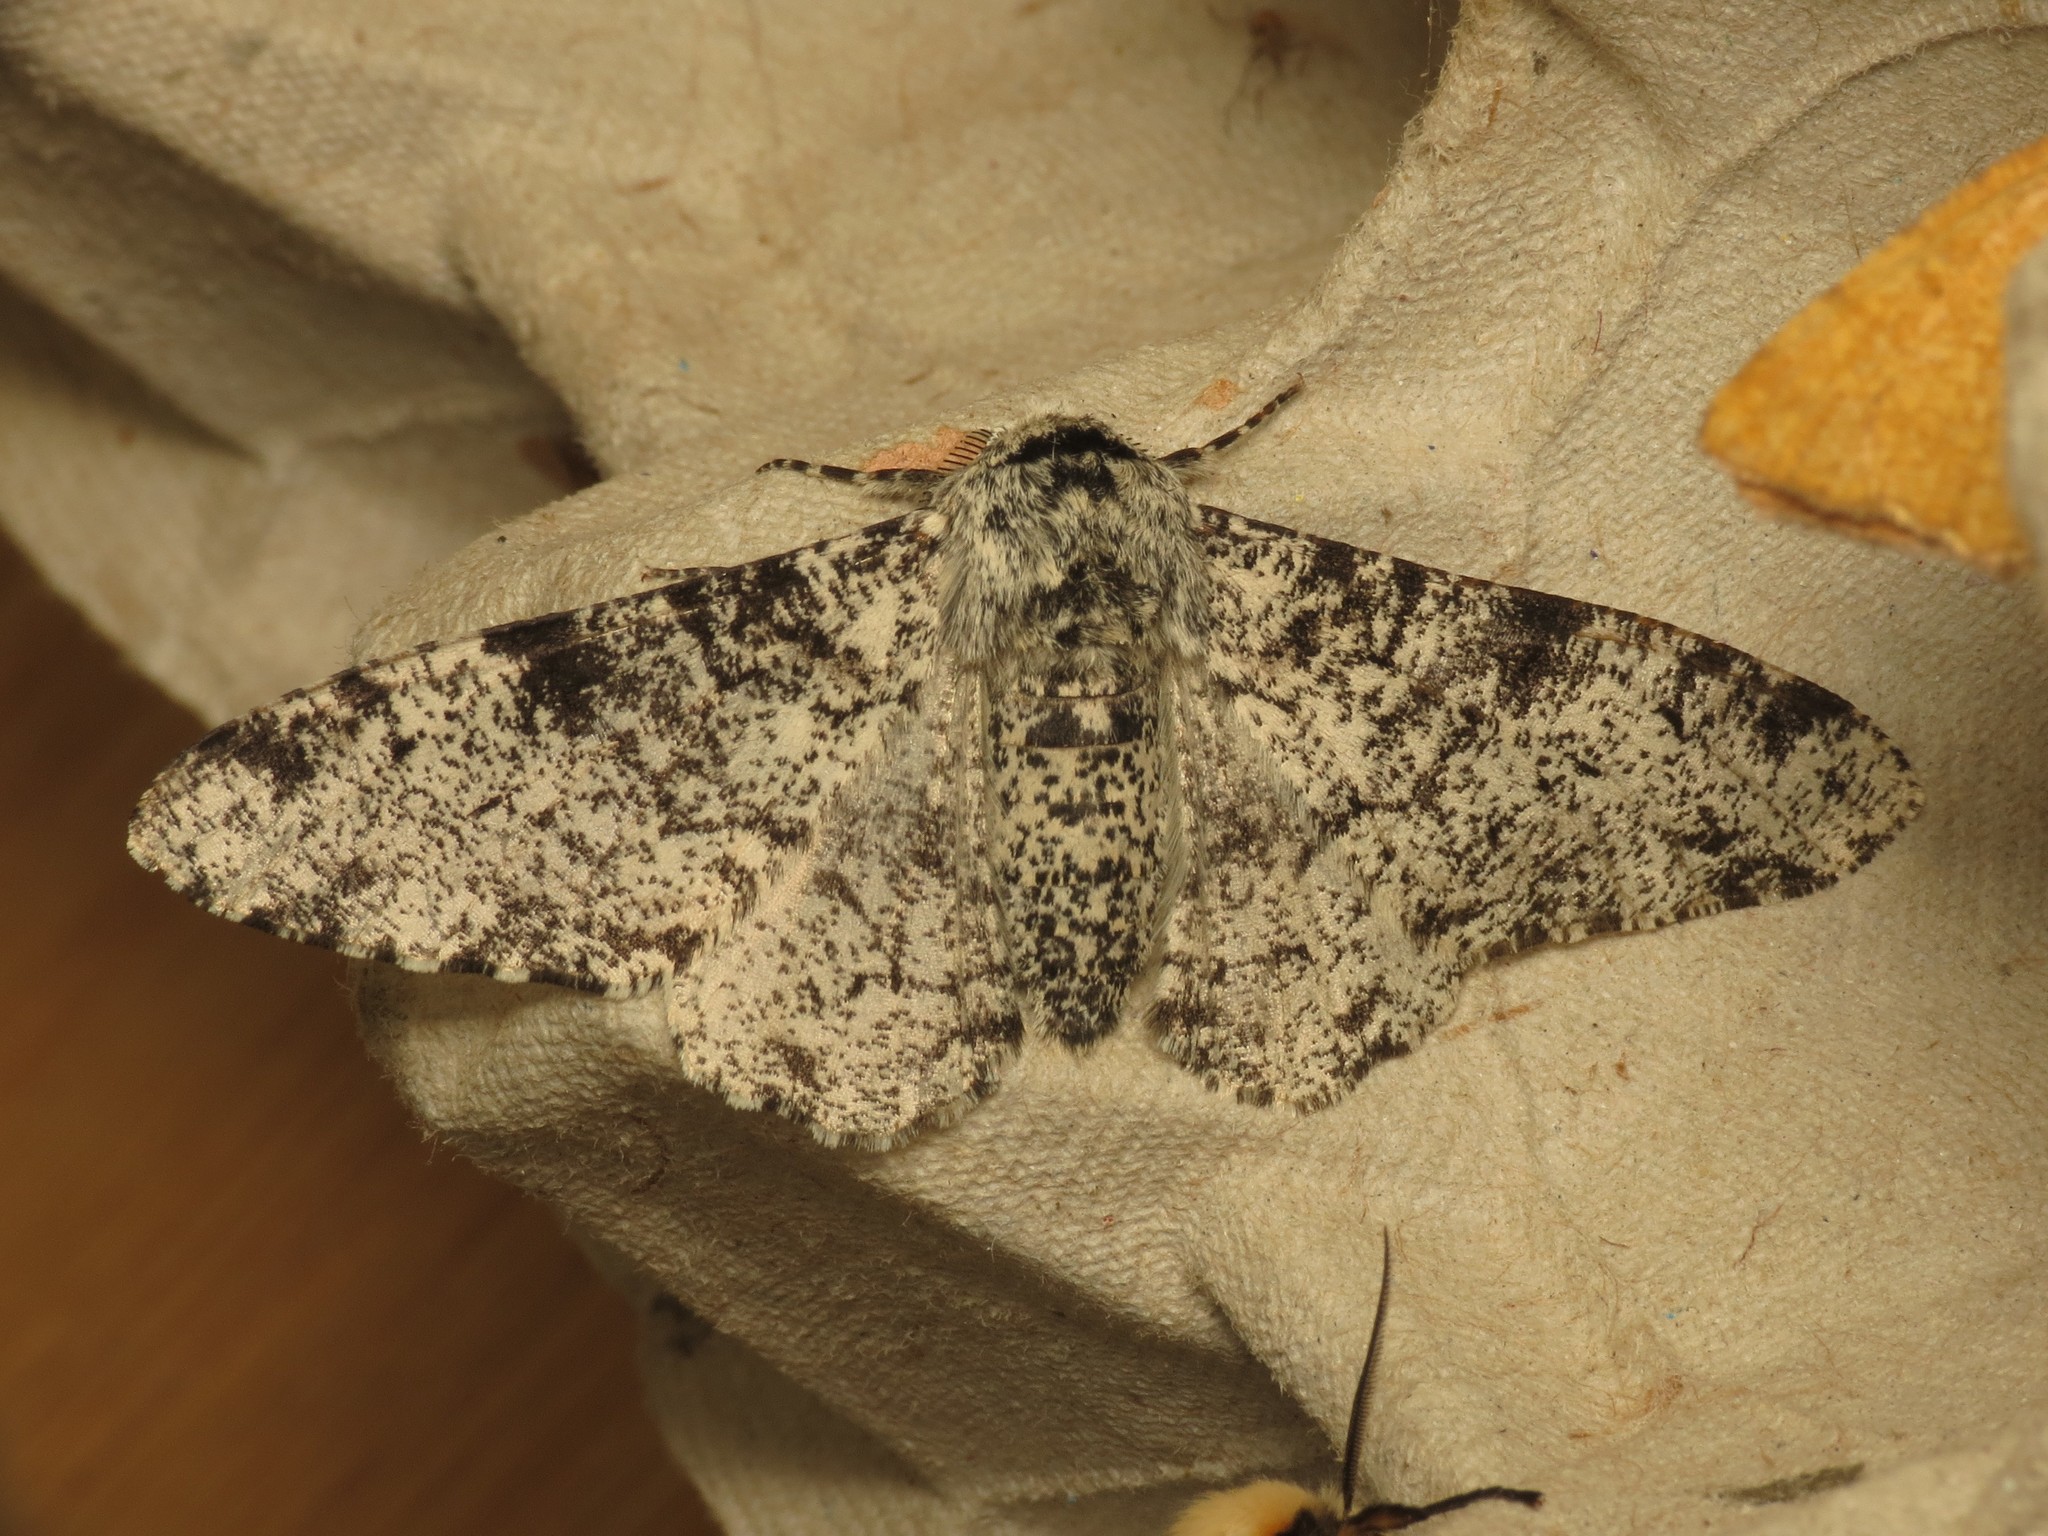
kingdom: Animalia
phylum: Arthropoda
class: Insecta
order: Lepidoptera
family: Geometridae
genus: Biston
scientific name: Biston betularia
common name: Peppered moth
